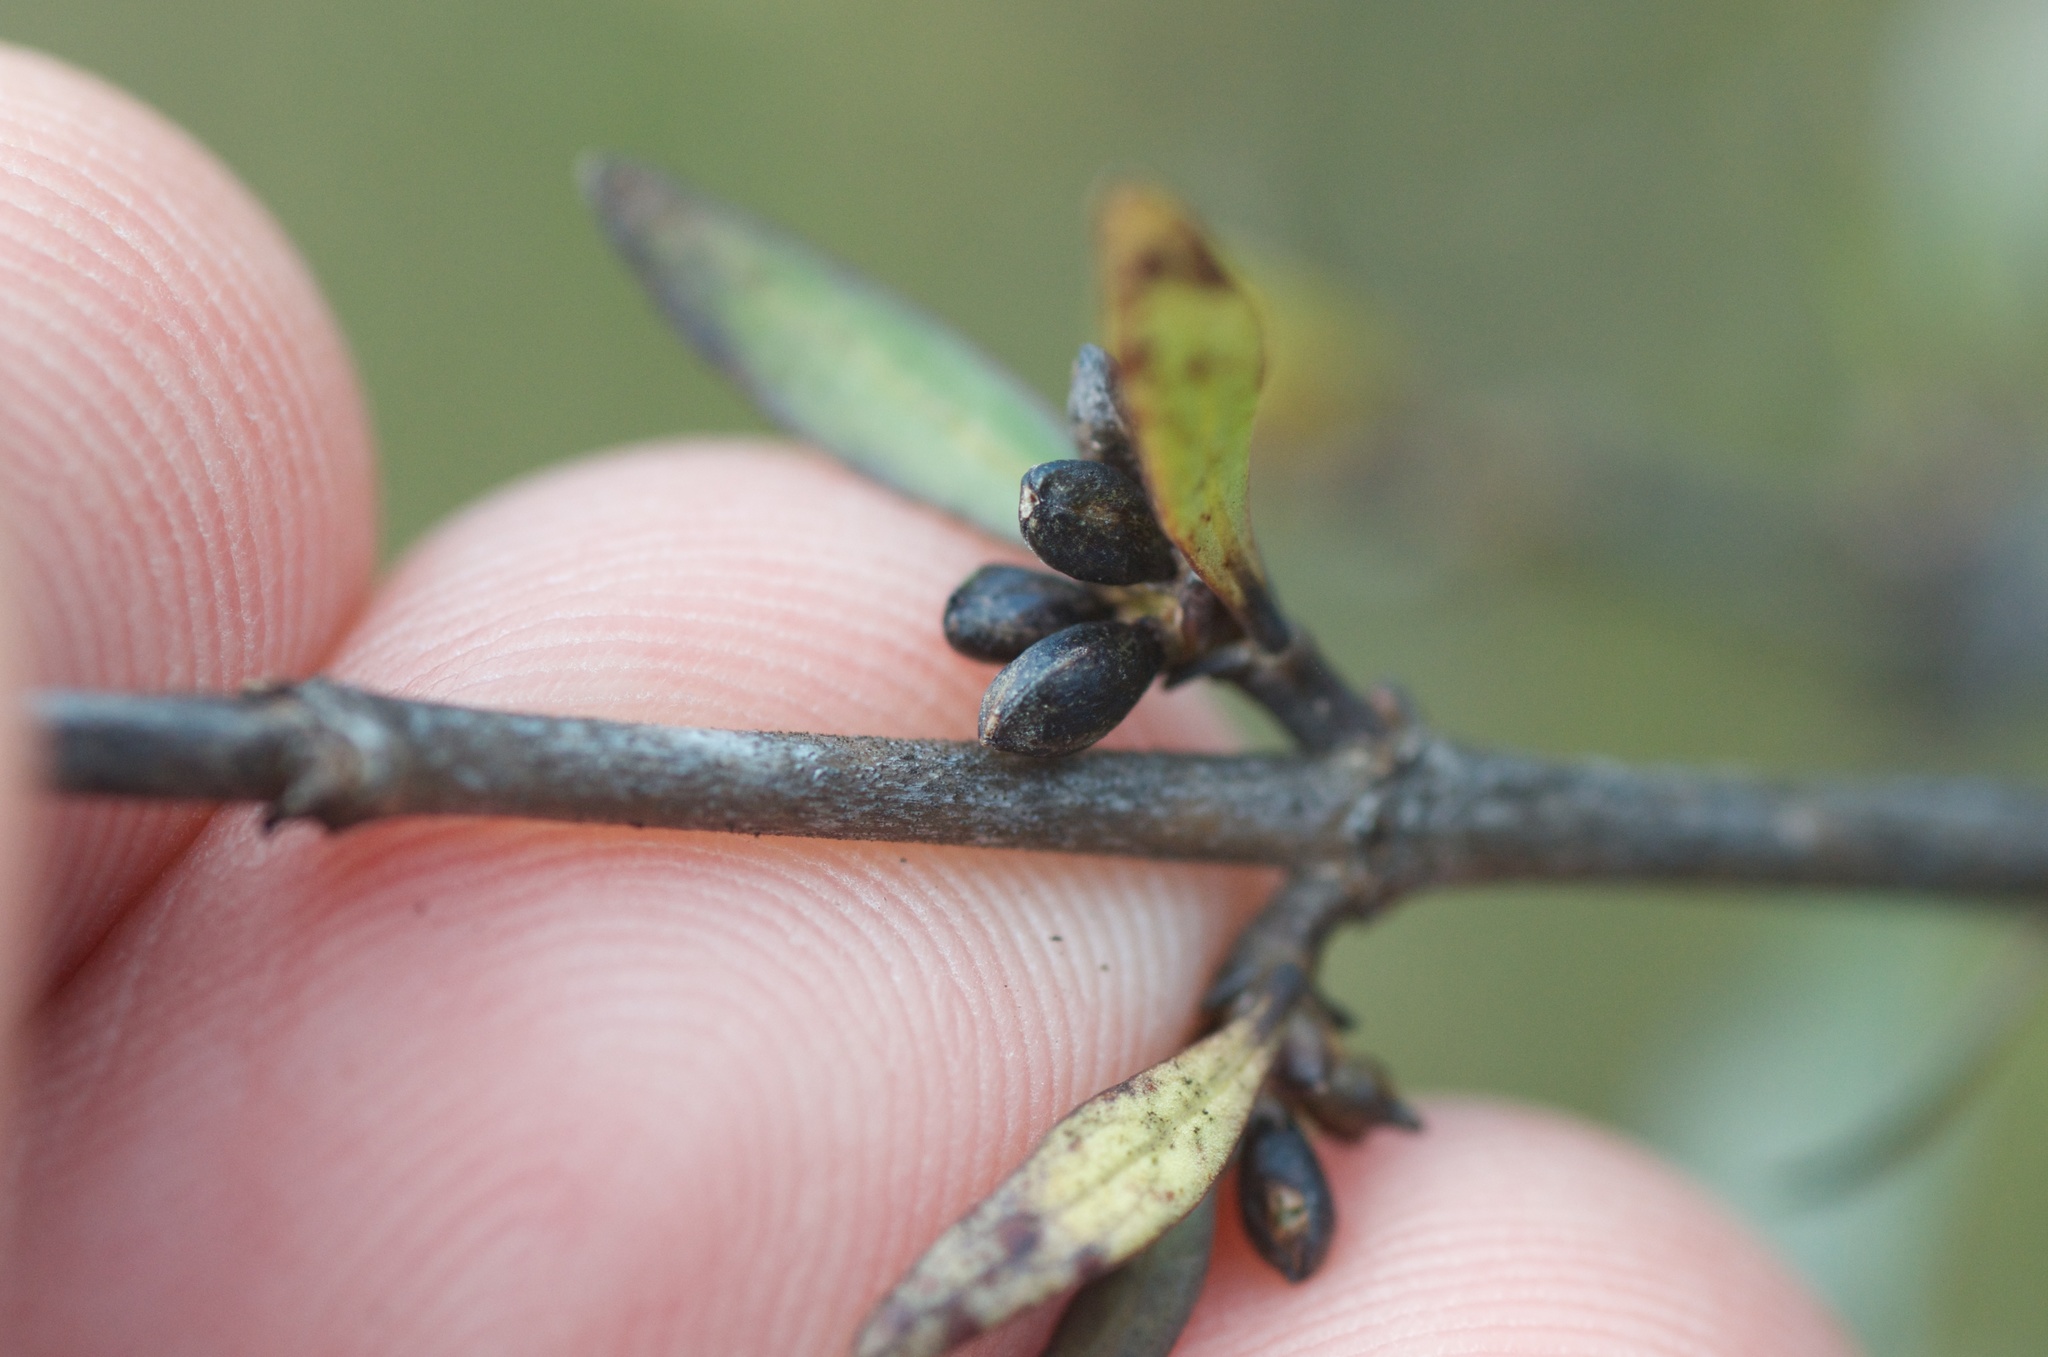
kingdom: Plantae
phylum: Tracheophyta
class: Magnoliopsida
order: Gentianales
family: Rubiaceae
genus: Coprosma
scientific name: Coprosma cunninghamii
